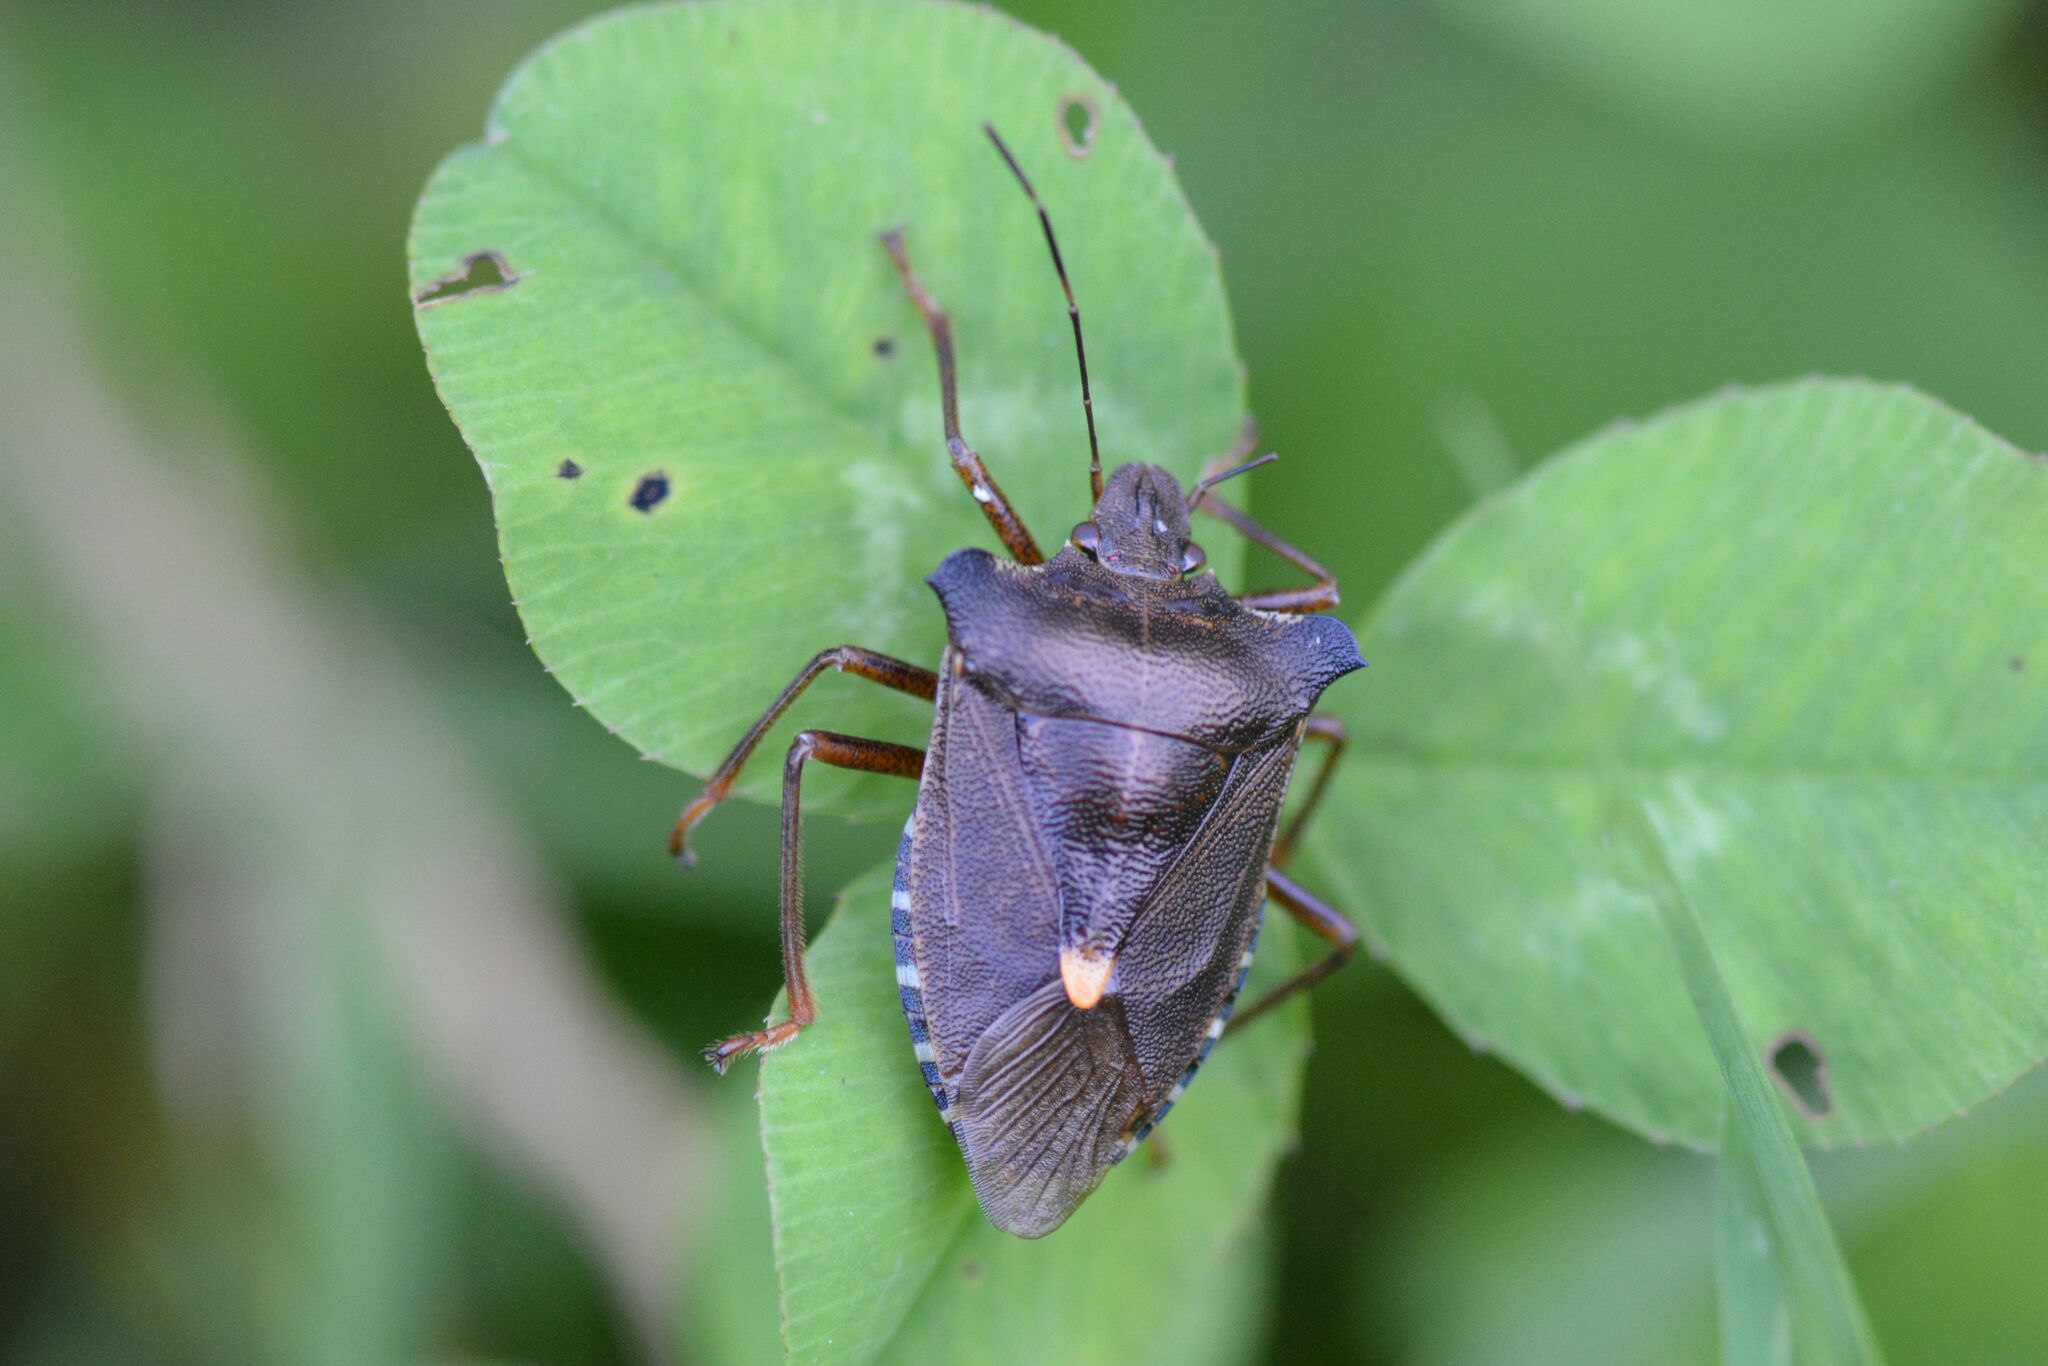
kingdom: Animalia
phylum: Arthropoda
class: Insecta
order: Hemiptera
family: Pentatomidae
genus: Pentatoma
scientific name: Pentatoma rufipes
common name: Forest bug
